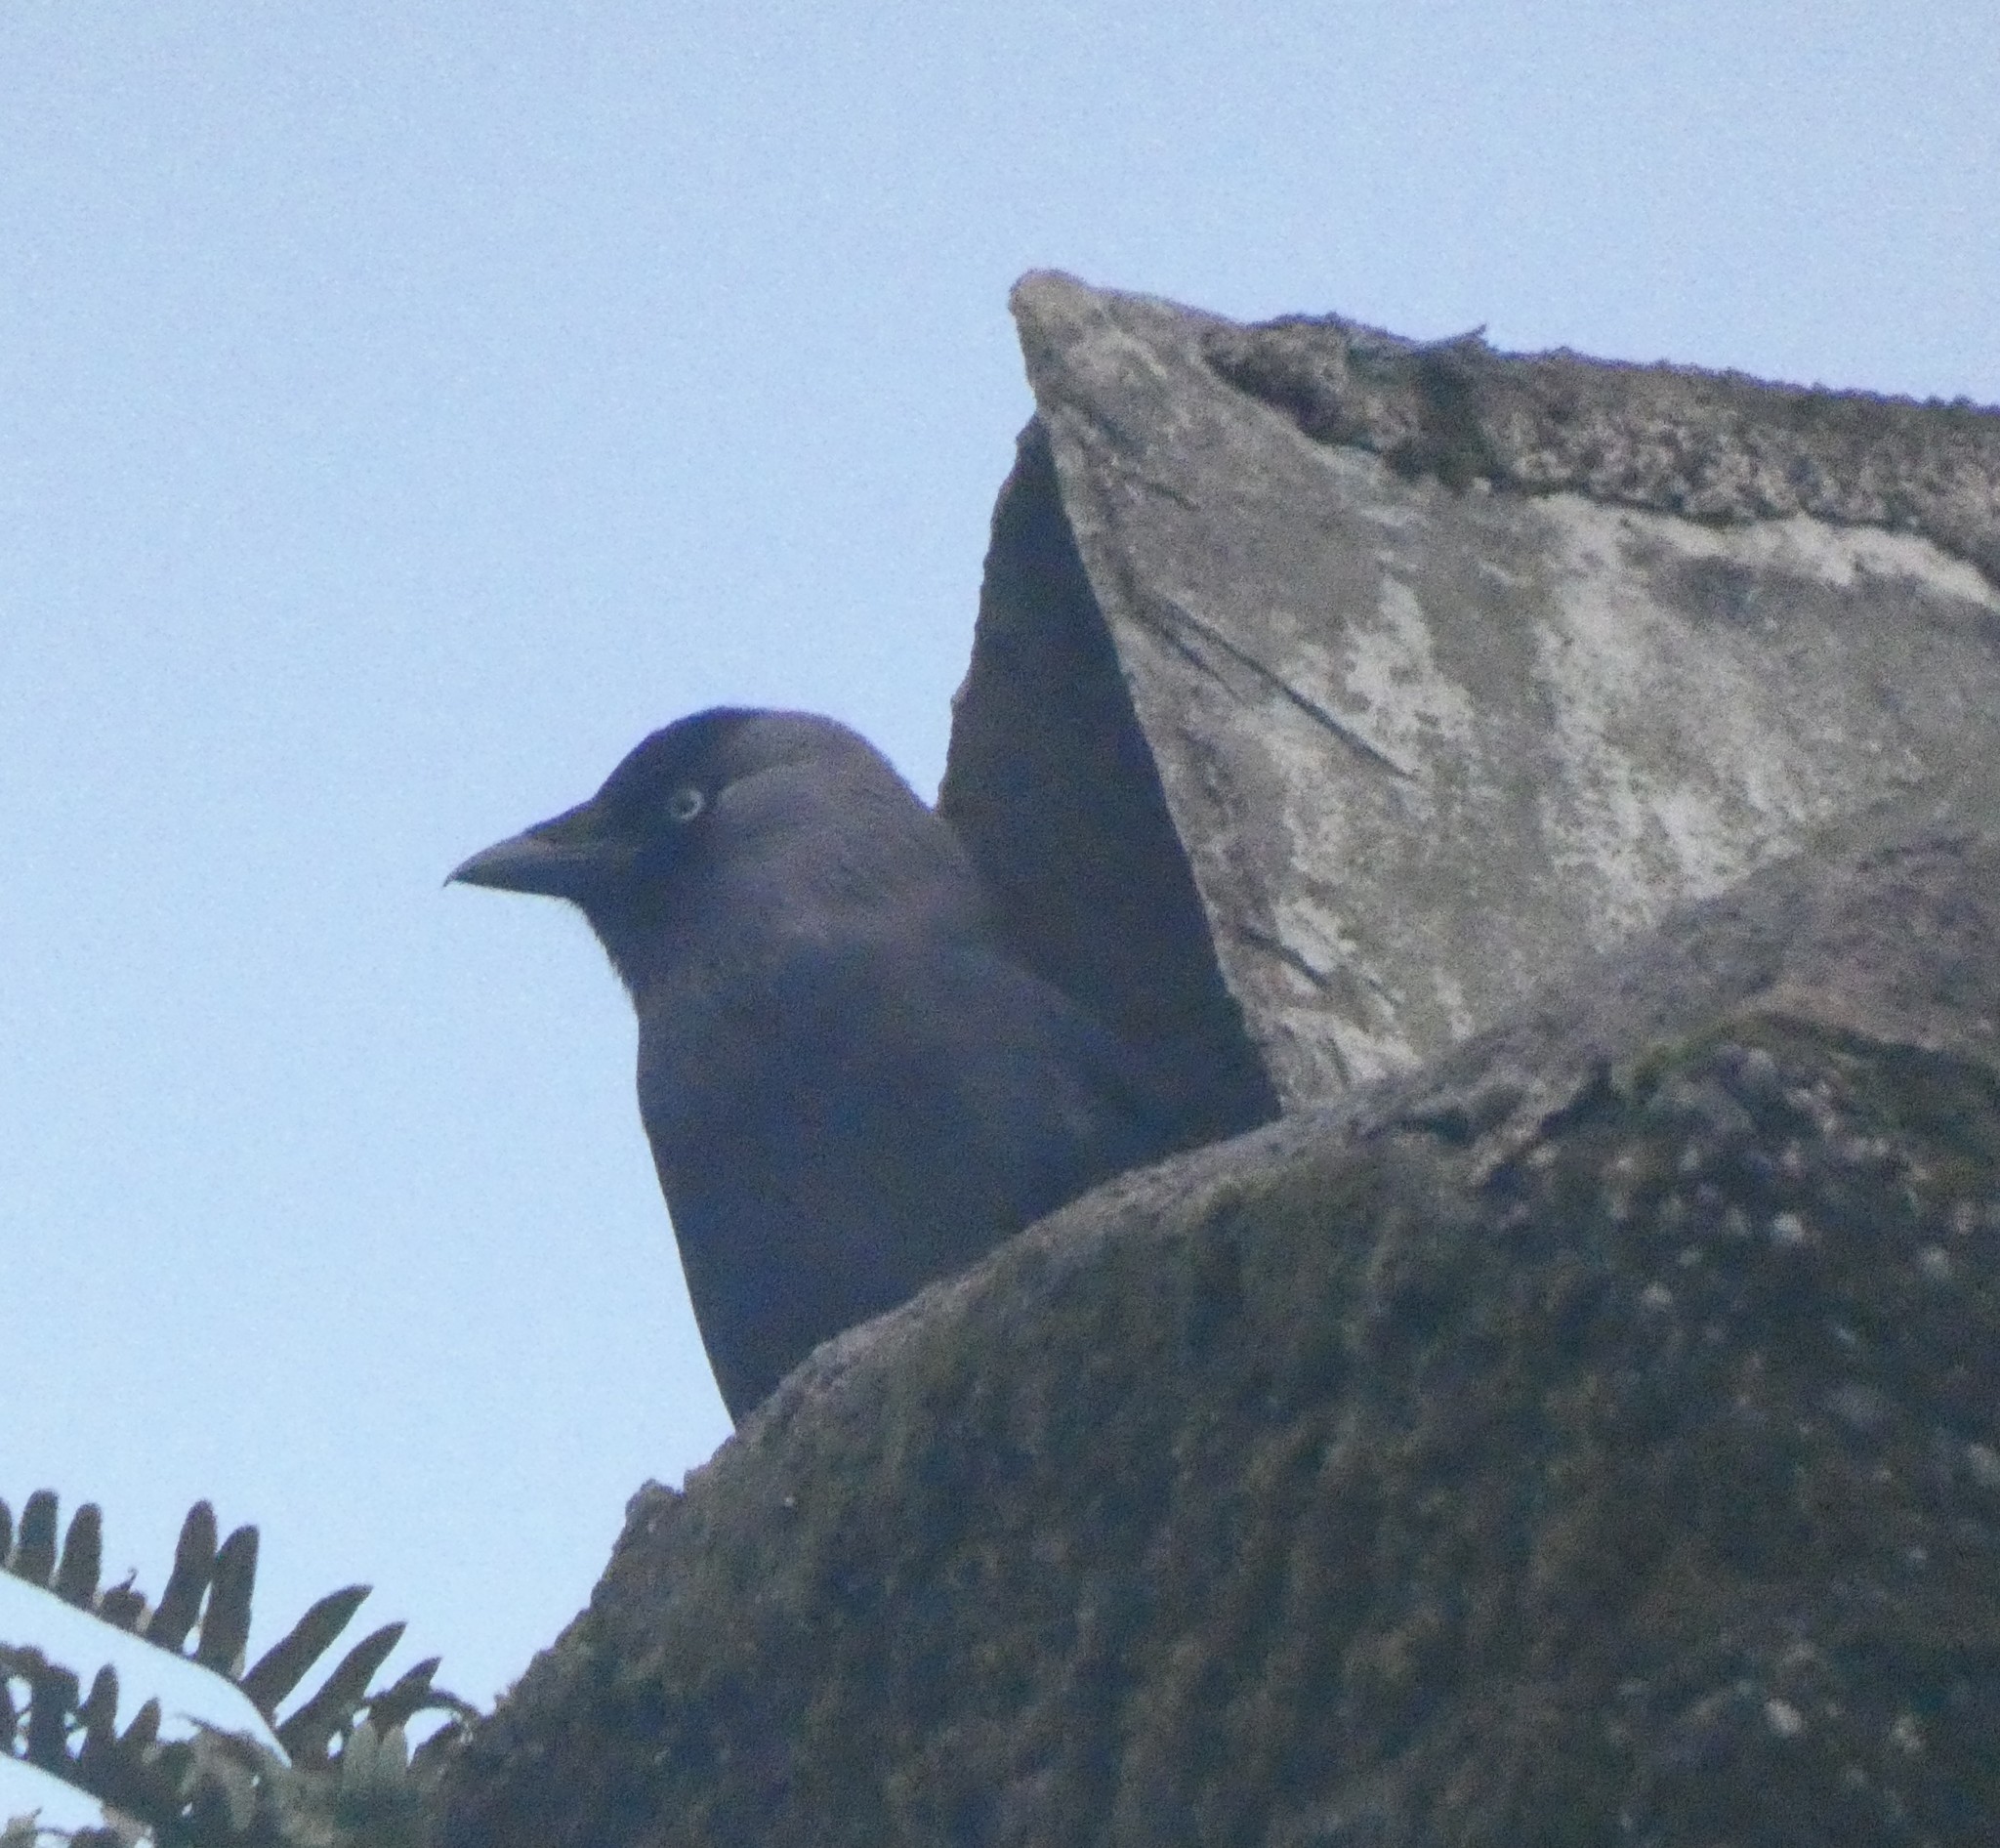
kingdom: Animalia
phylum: Chordata
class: Aves
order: Passeriformes
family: Corvidae
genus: Coloeus
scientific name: Coloeus monedula
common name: Western jackdaw
